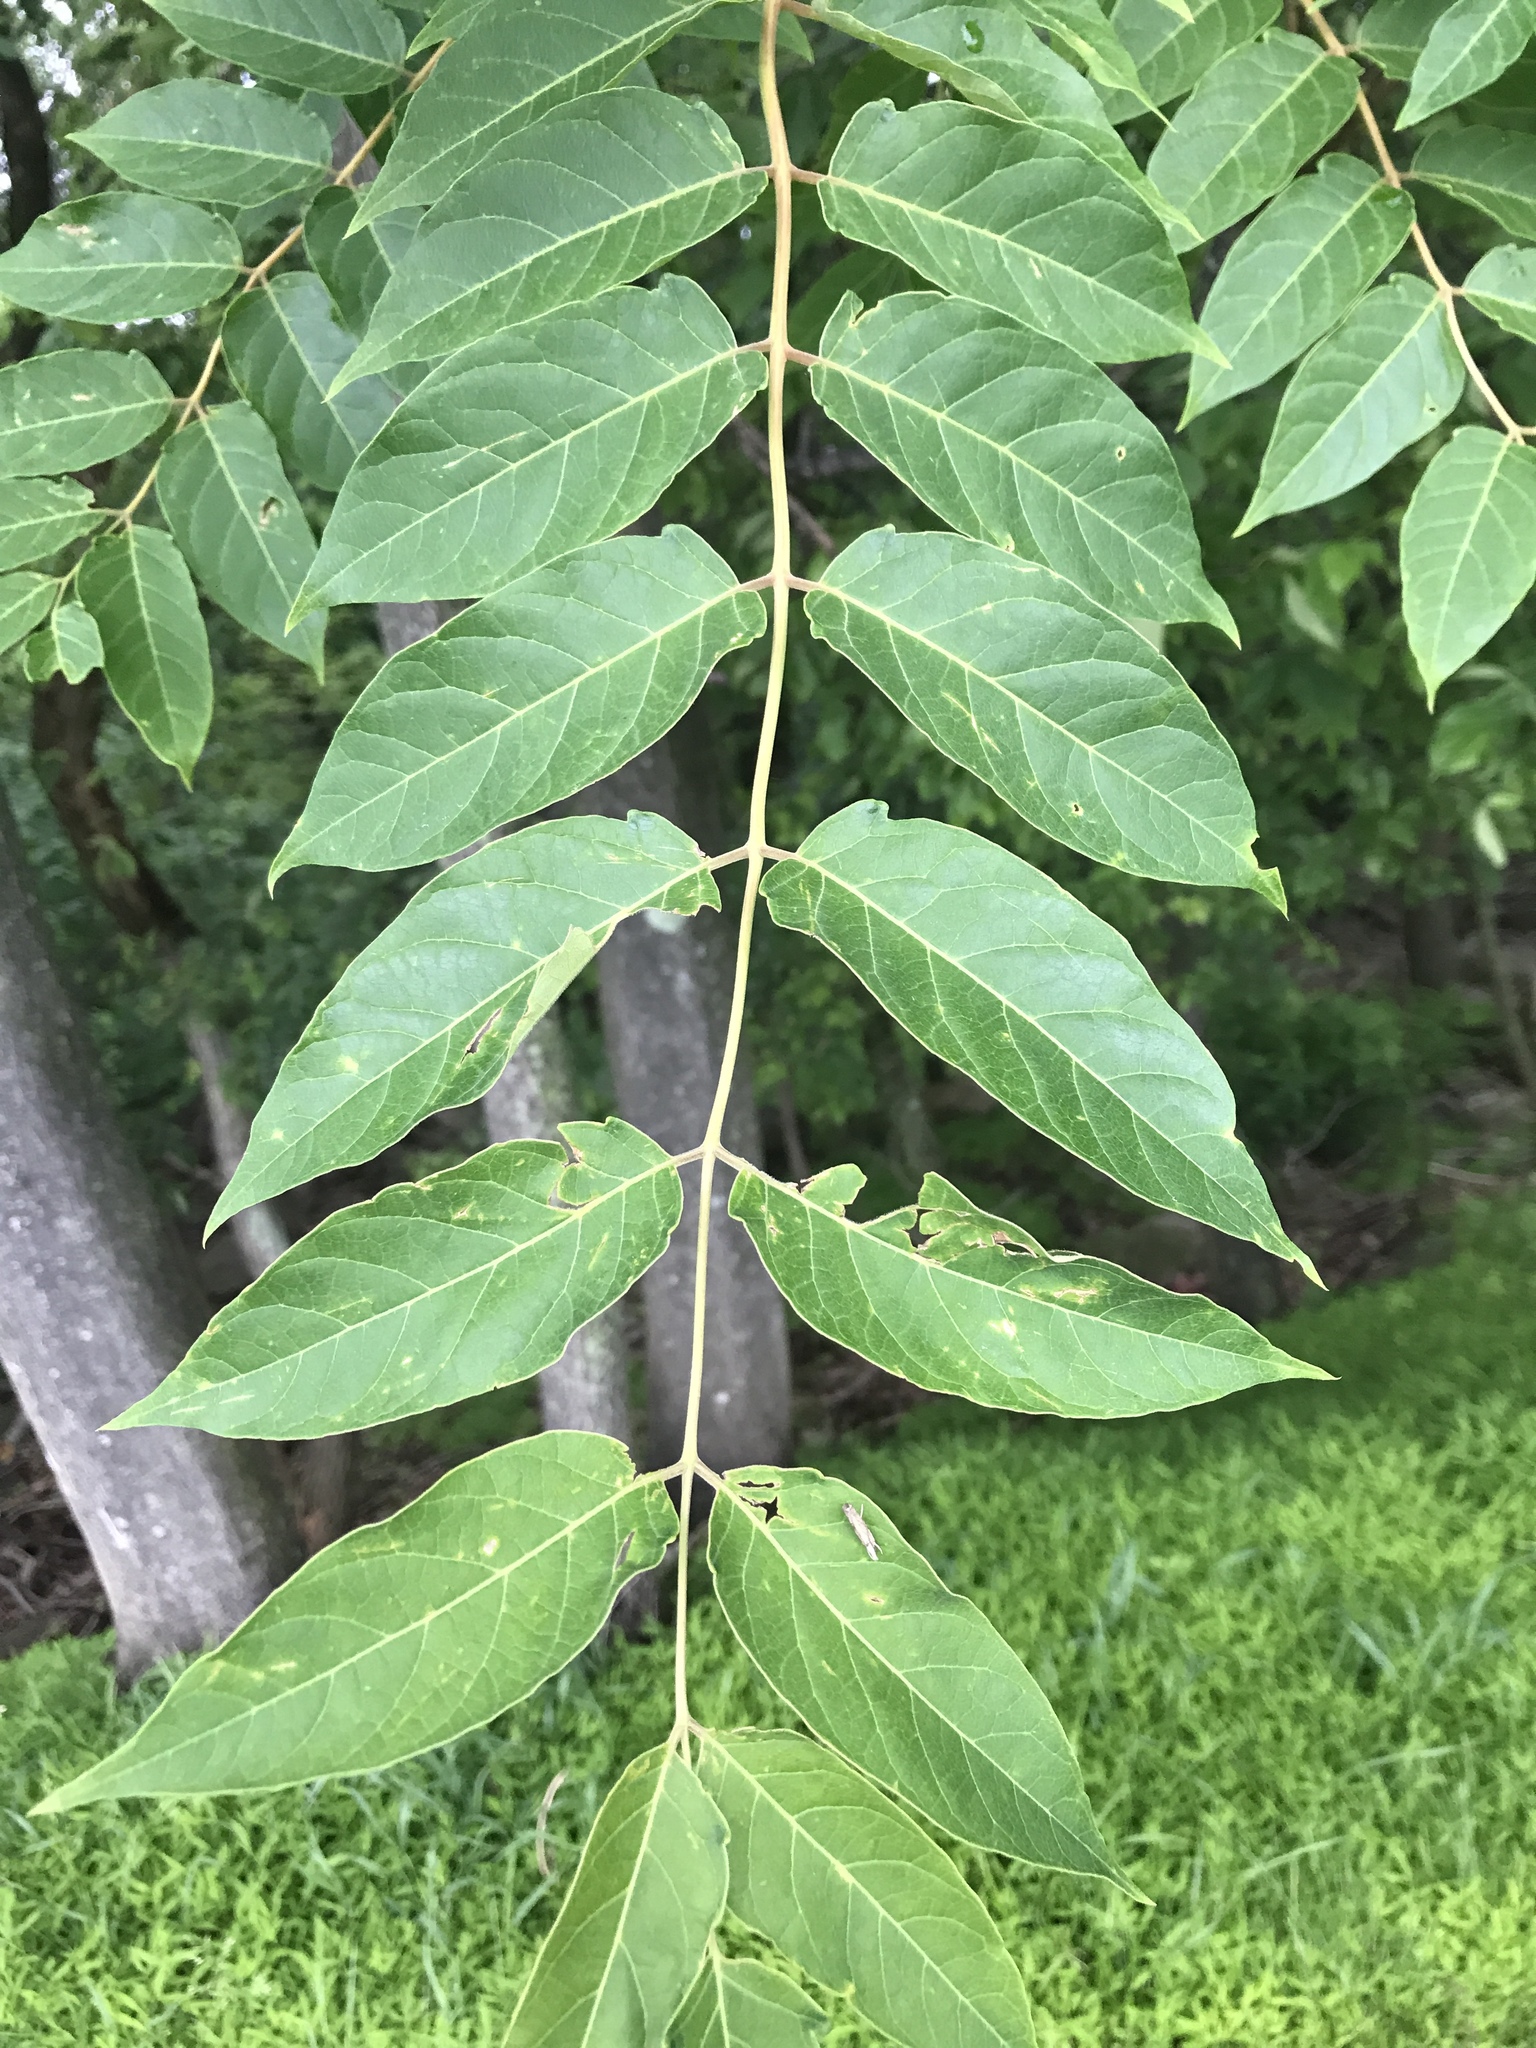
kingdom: Plantae
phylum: Tracheophyta
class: Magnoliopsida
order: Sapindales
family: Simaroubaceae
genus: Ailanthus
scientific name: Ailanthus altissima
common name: Tree-of-heaven
